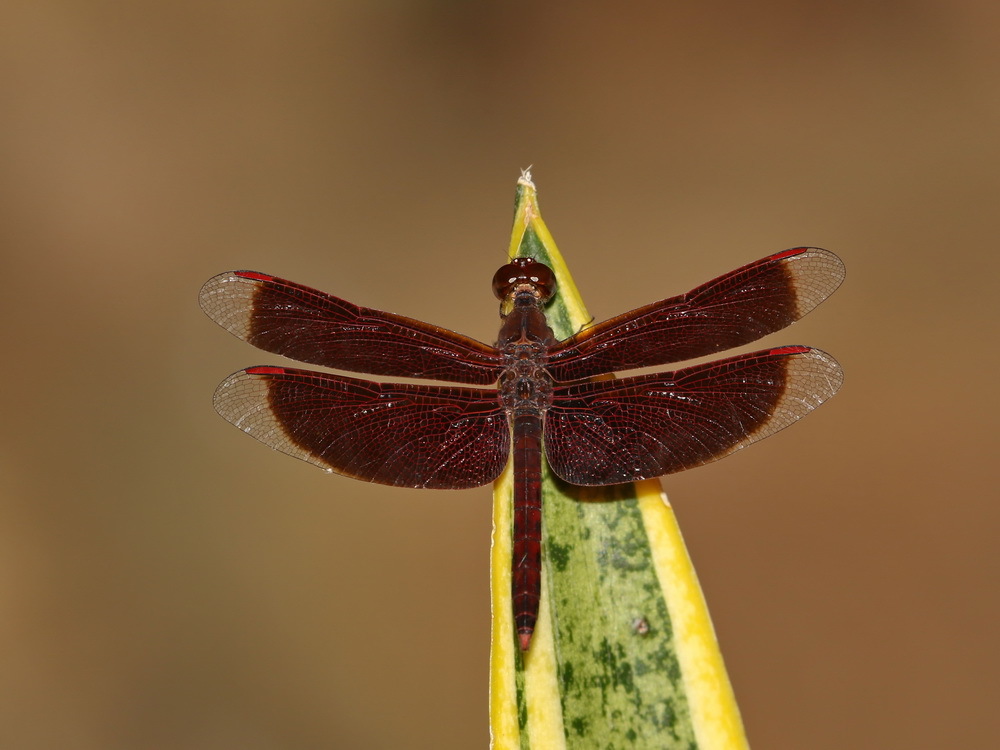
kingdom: Animalia
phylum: Arthropoda
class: Insecta
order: Odonata
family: Libellulidae
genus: Neurothemis
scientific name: Neurothemis fluctuans
